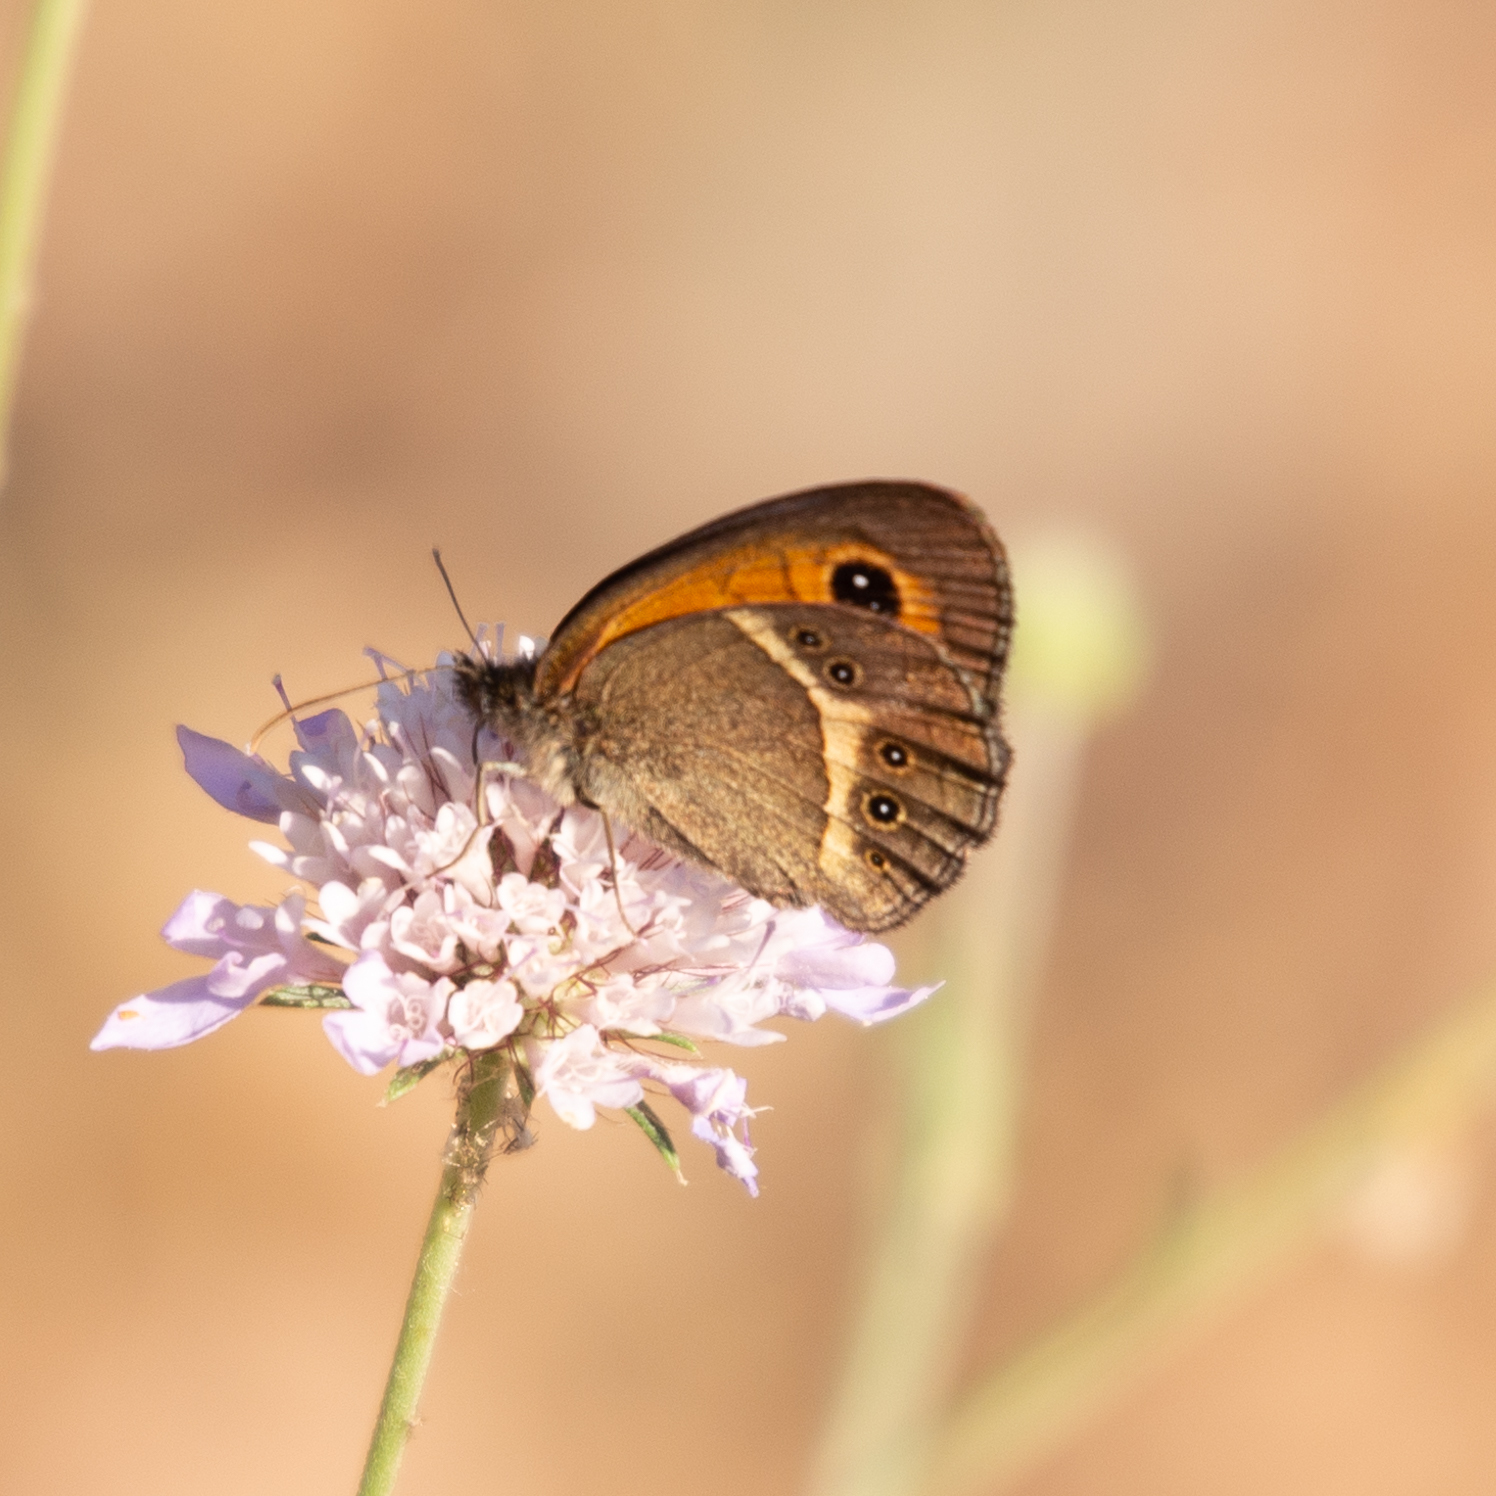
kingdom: Animalia
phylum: Arthropoda
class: Insecta
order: Lepidoptera
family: Nymphalidae
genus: Pyronia
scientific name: Pyronia bathseba
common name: Spanish gatekeeper
